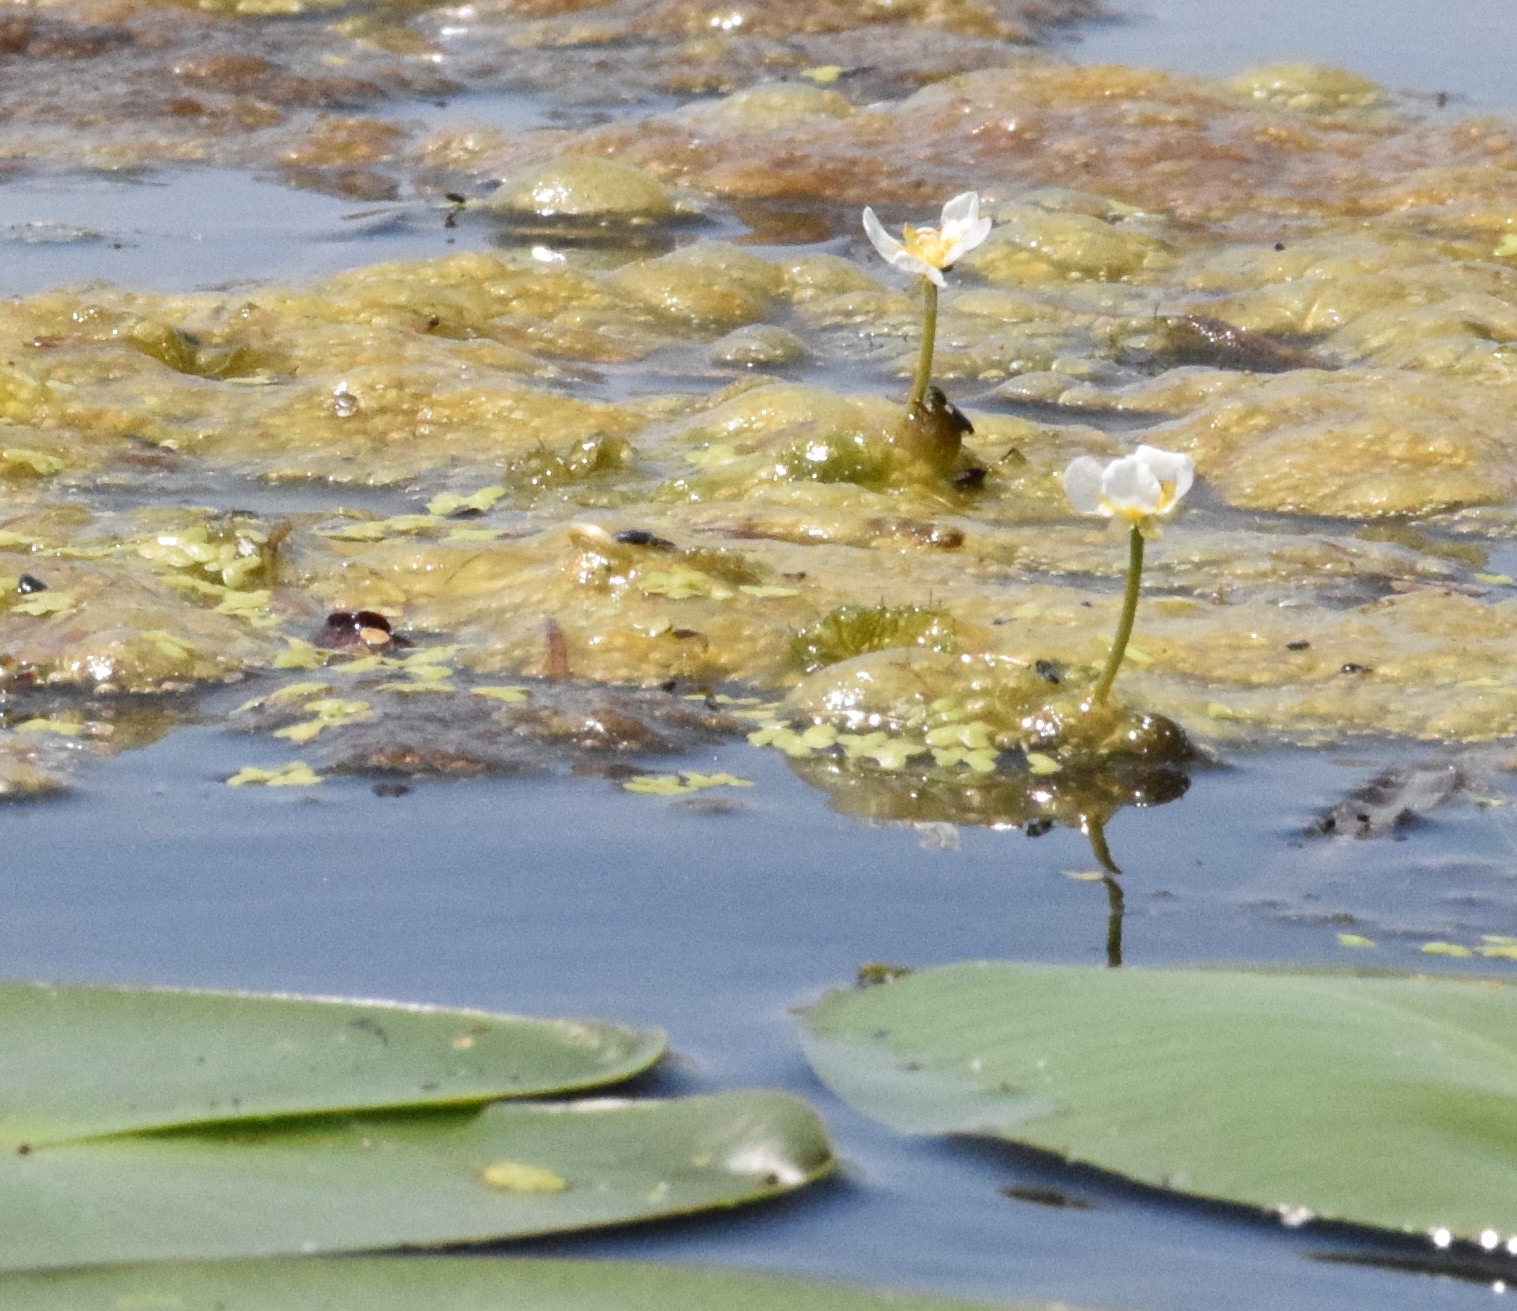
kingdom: Plantae
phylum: Tracheophyta
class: Magnoliopsida
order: Ranunculales
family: Ranunculaceae
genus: Ranunculus
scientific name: Ranunculus aquatilis
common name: Common water-crowfoot
